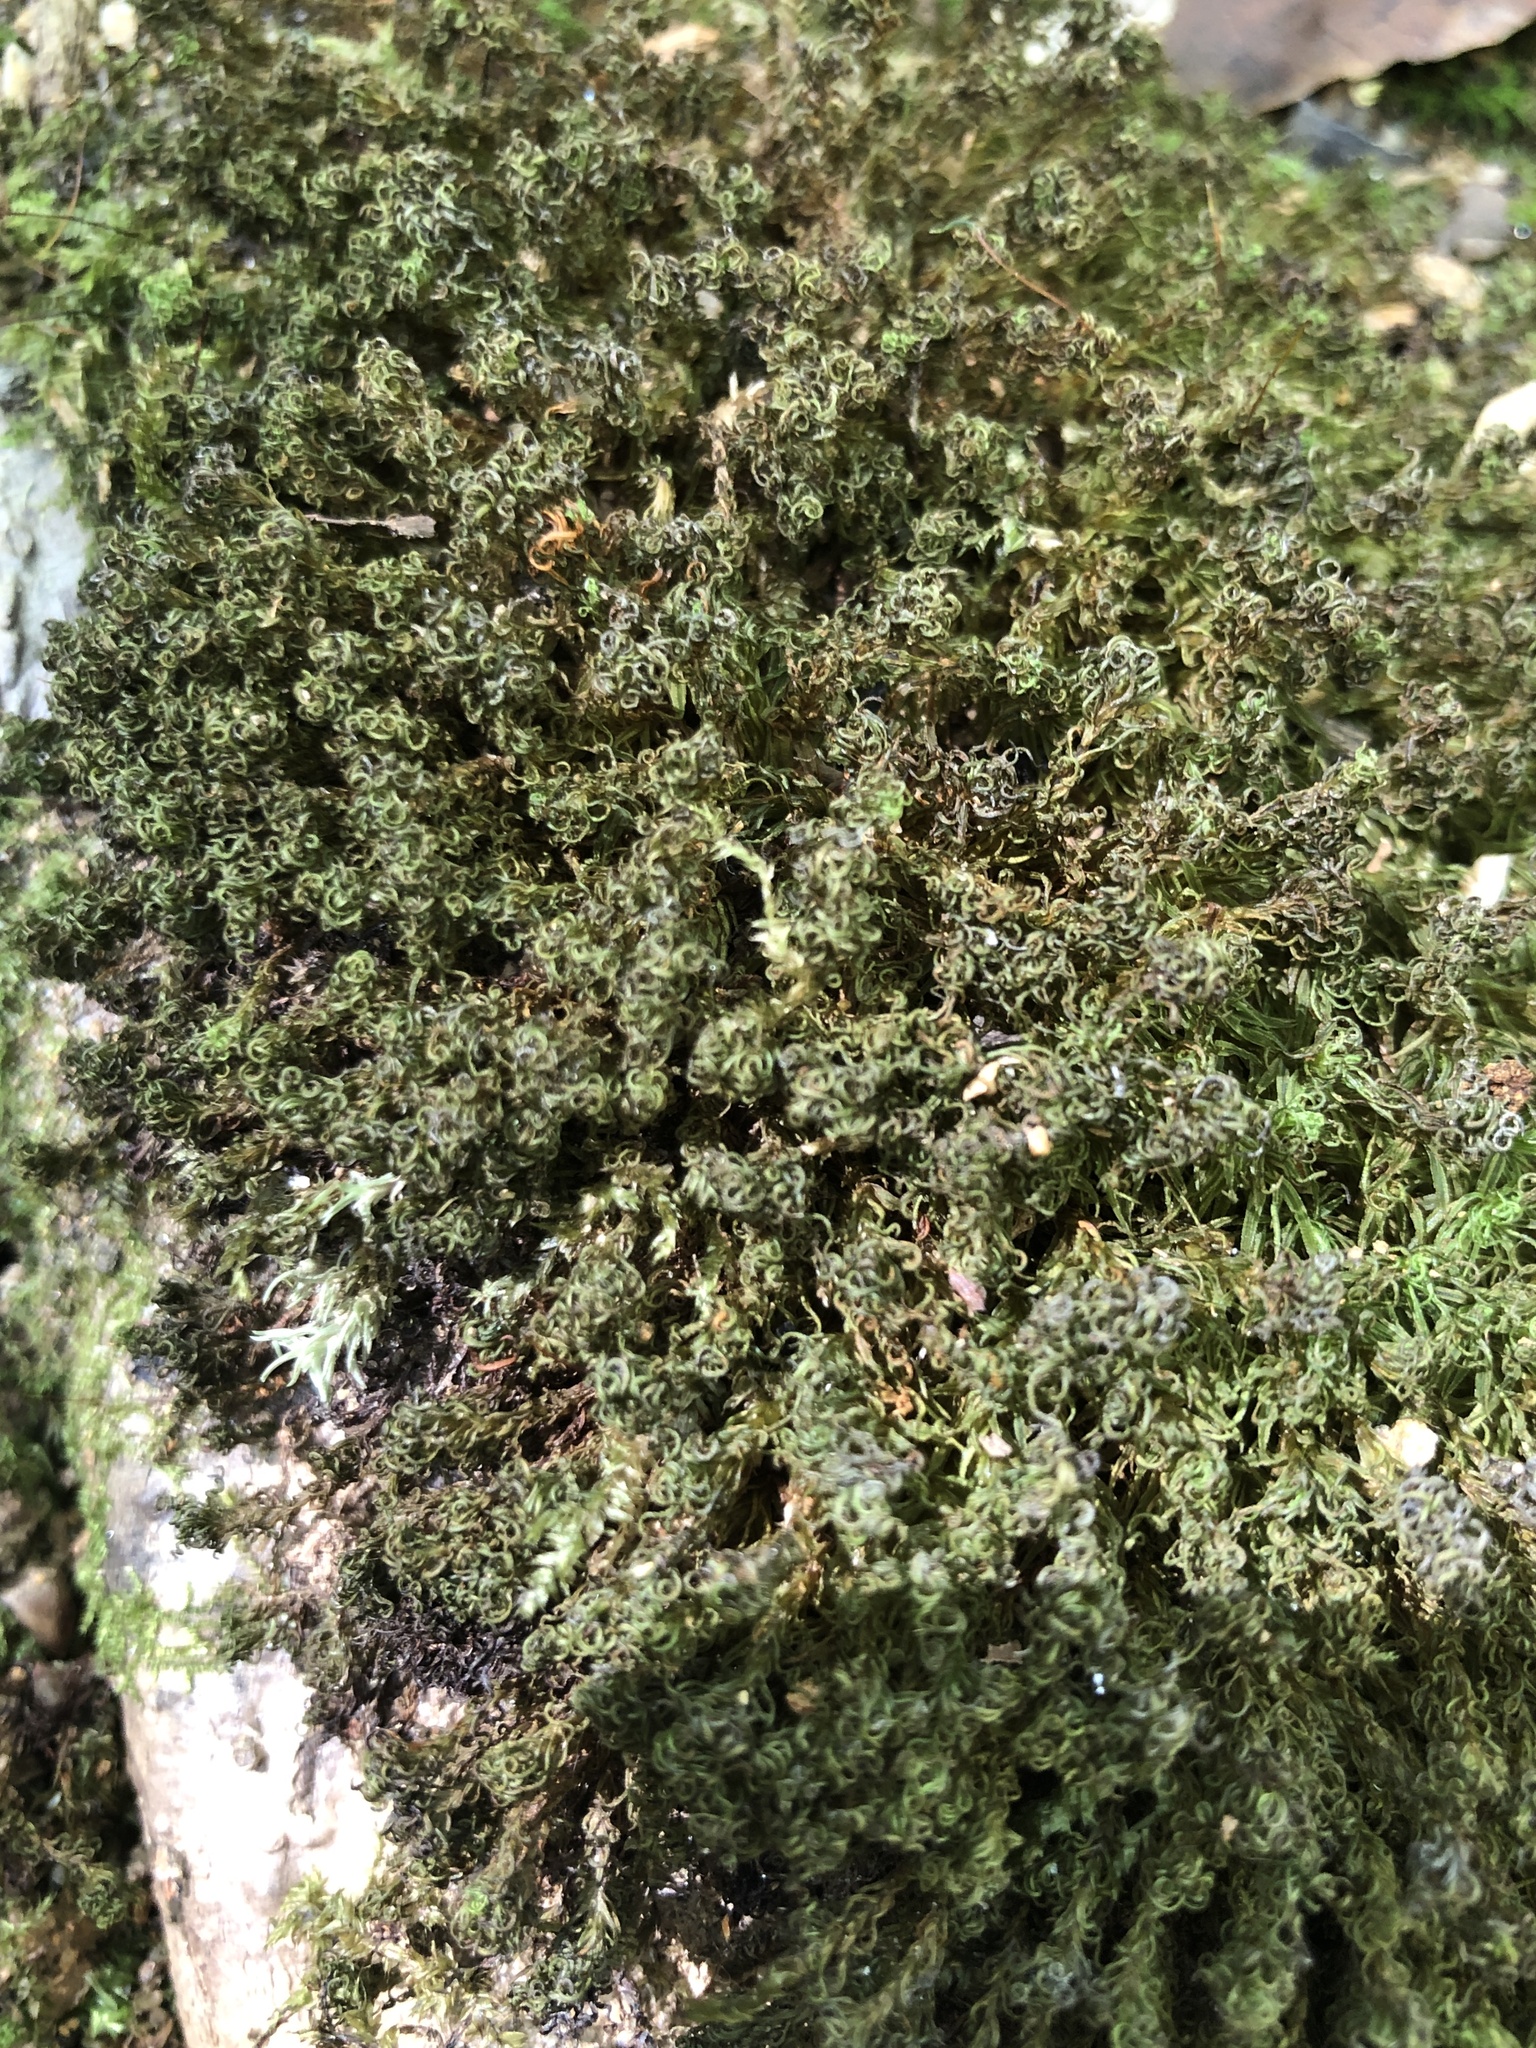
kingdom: Plantae
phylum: Bryophyta
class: Polytrichopsida
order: Polytrichales
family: Polytrichaceae
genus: Atrichum
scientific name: Atrichum angustatum
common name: Lesser smoothcap
